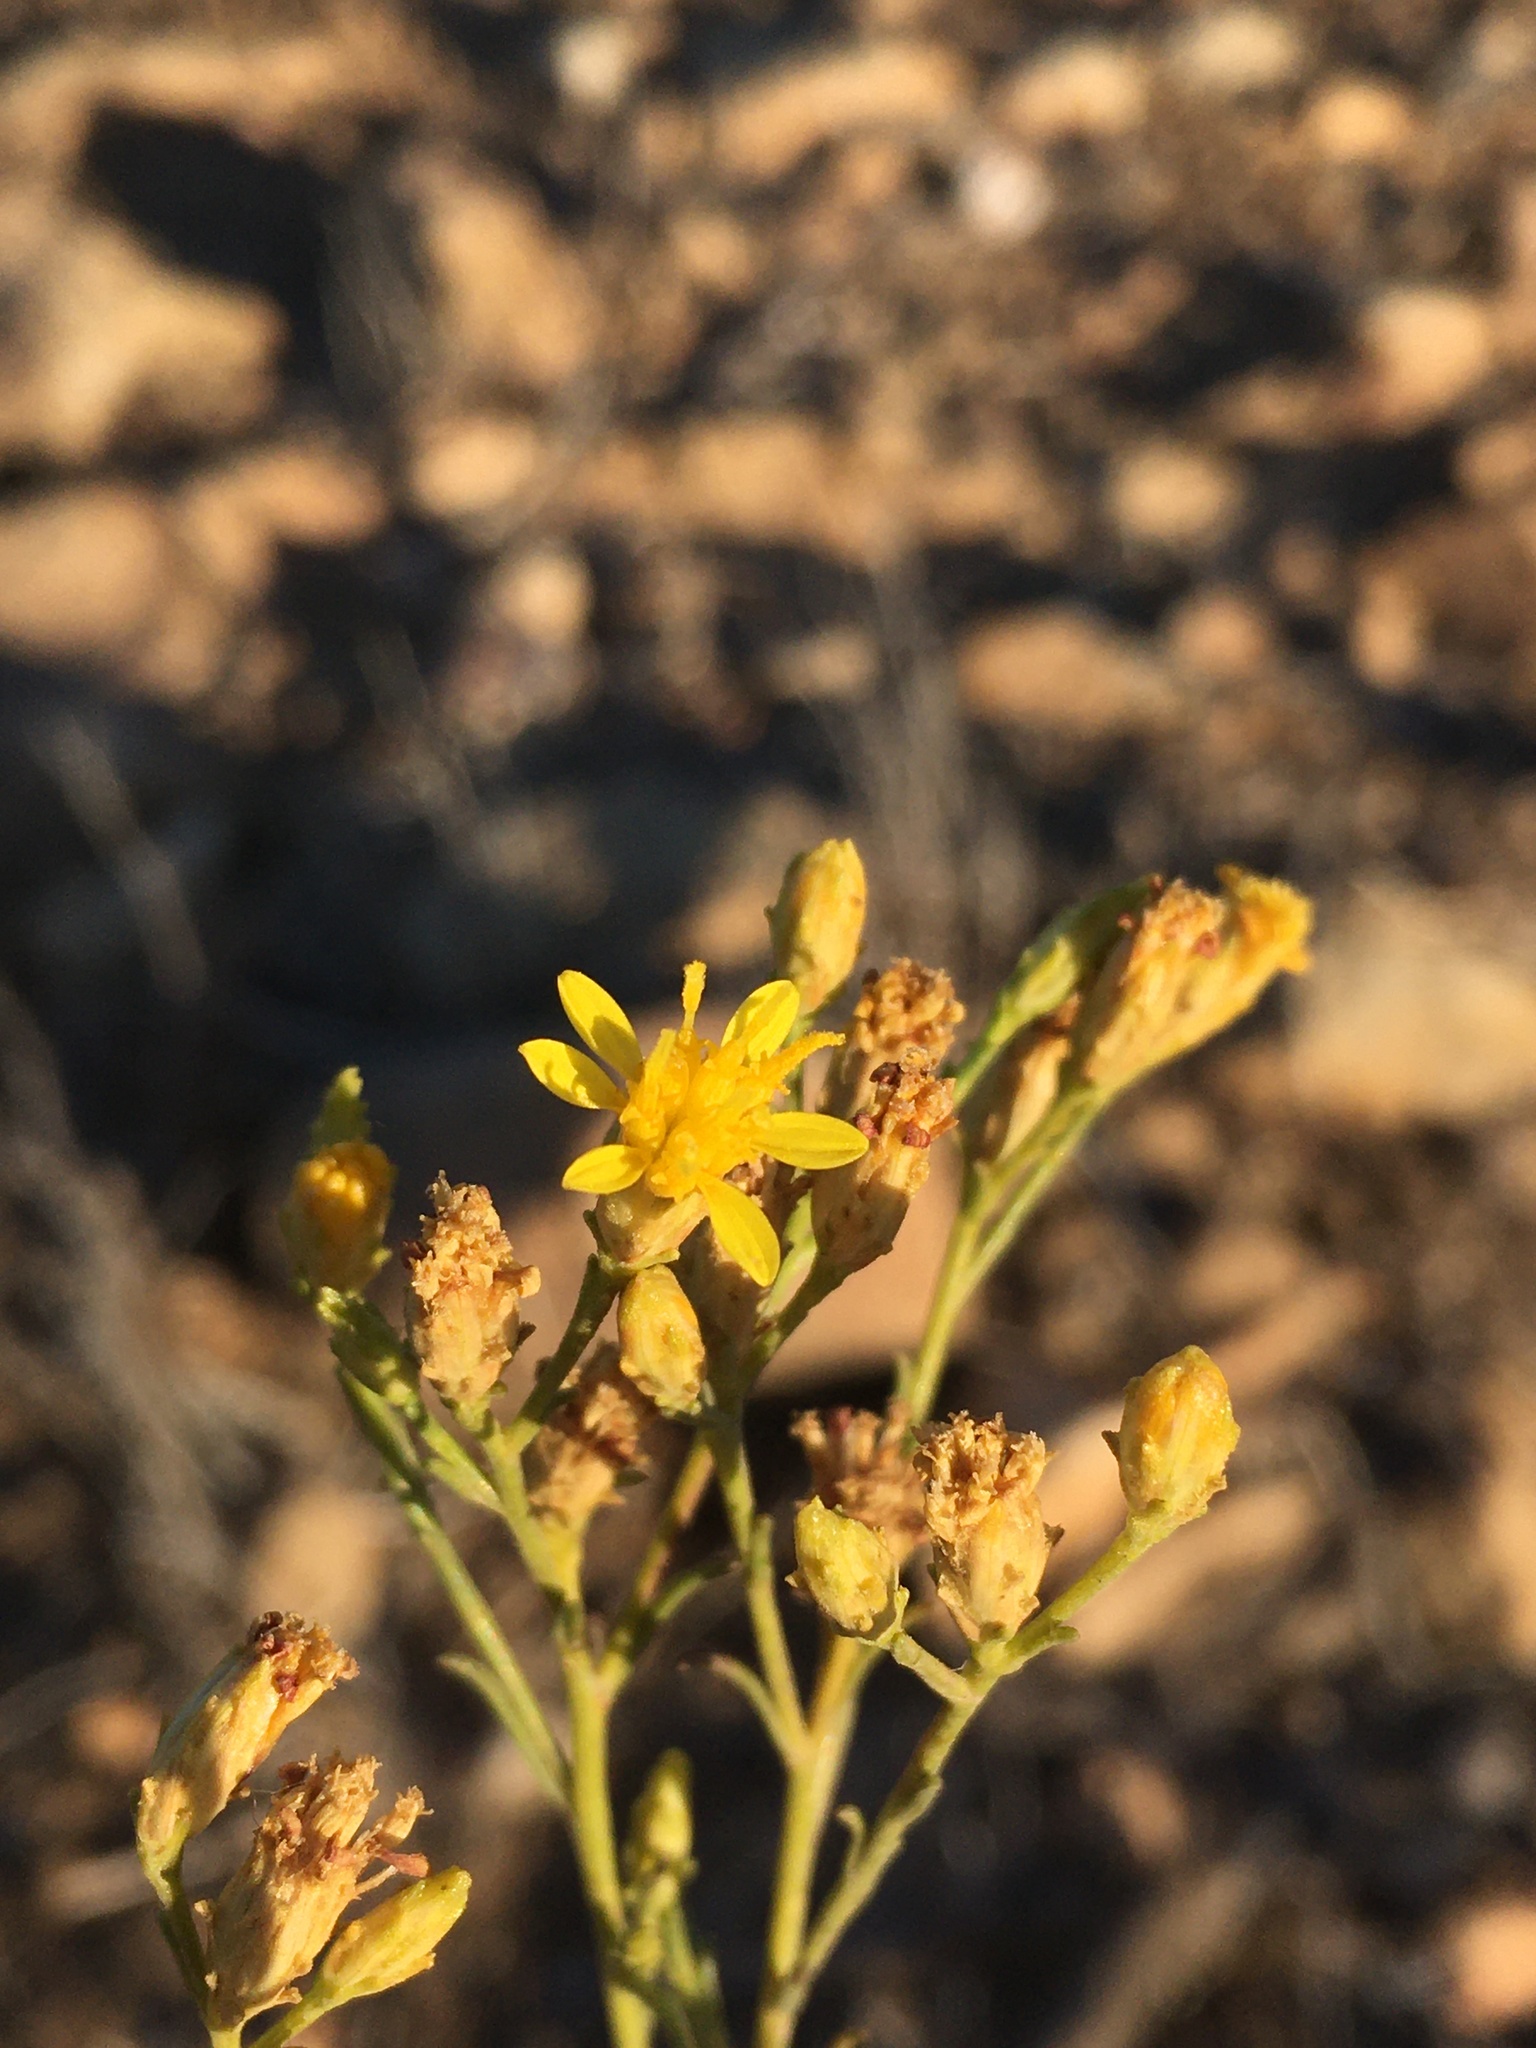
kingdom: Plantae
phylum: Tracheophyta
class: Magnoliopsida
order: Asterales
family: Asteraceae
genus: Gutierrezia
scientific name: Gutierrezia resinosa
